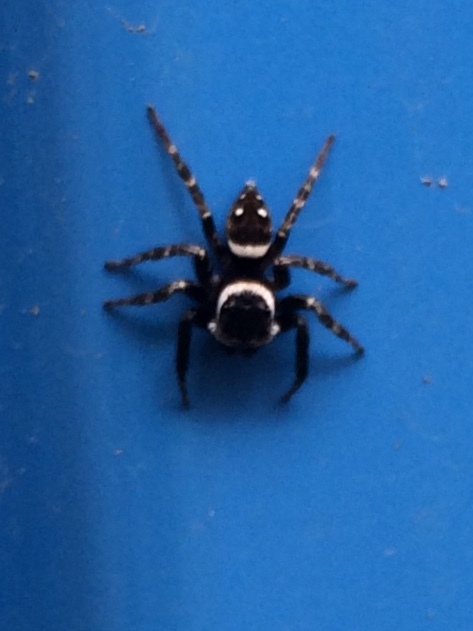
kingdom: Animalia
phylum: Arthropoda
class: Arachnida
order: Araneae
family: Salticidae
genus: Hasarius
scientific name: Hasarius adansoni
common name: Jumping spider
